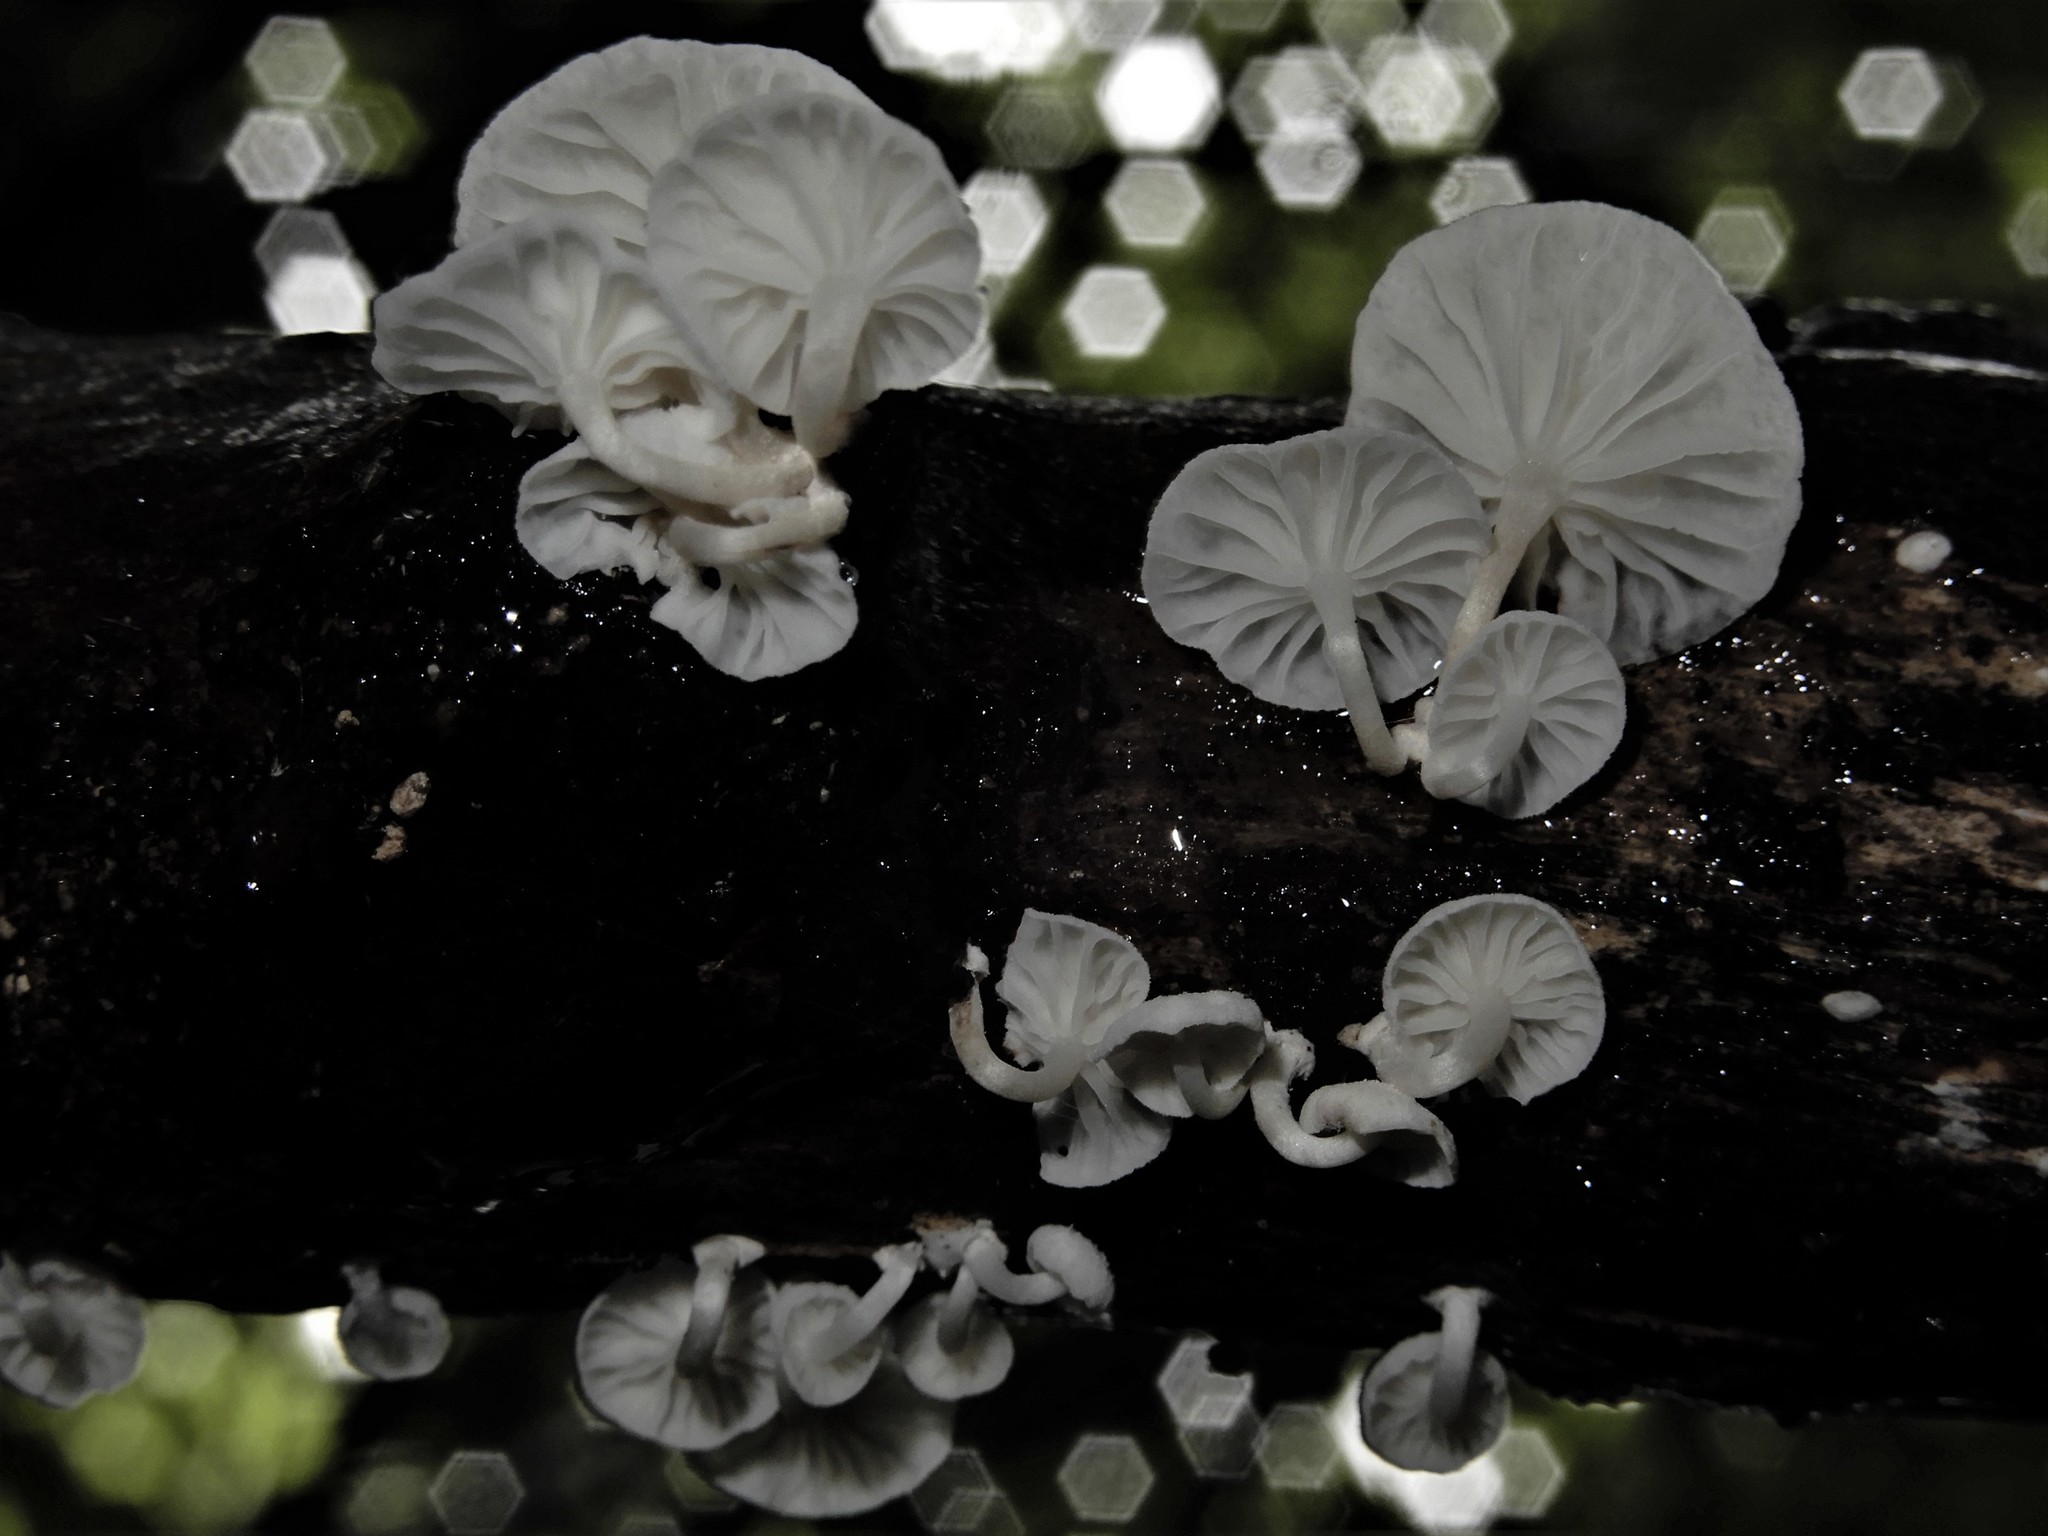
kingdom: Fungi
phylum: Basidiomycota
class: Agaricomycetes
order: Agaricales
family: Omphalotaceae
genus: Marasmiellus
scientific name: Marasmiellus candidus
